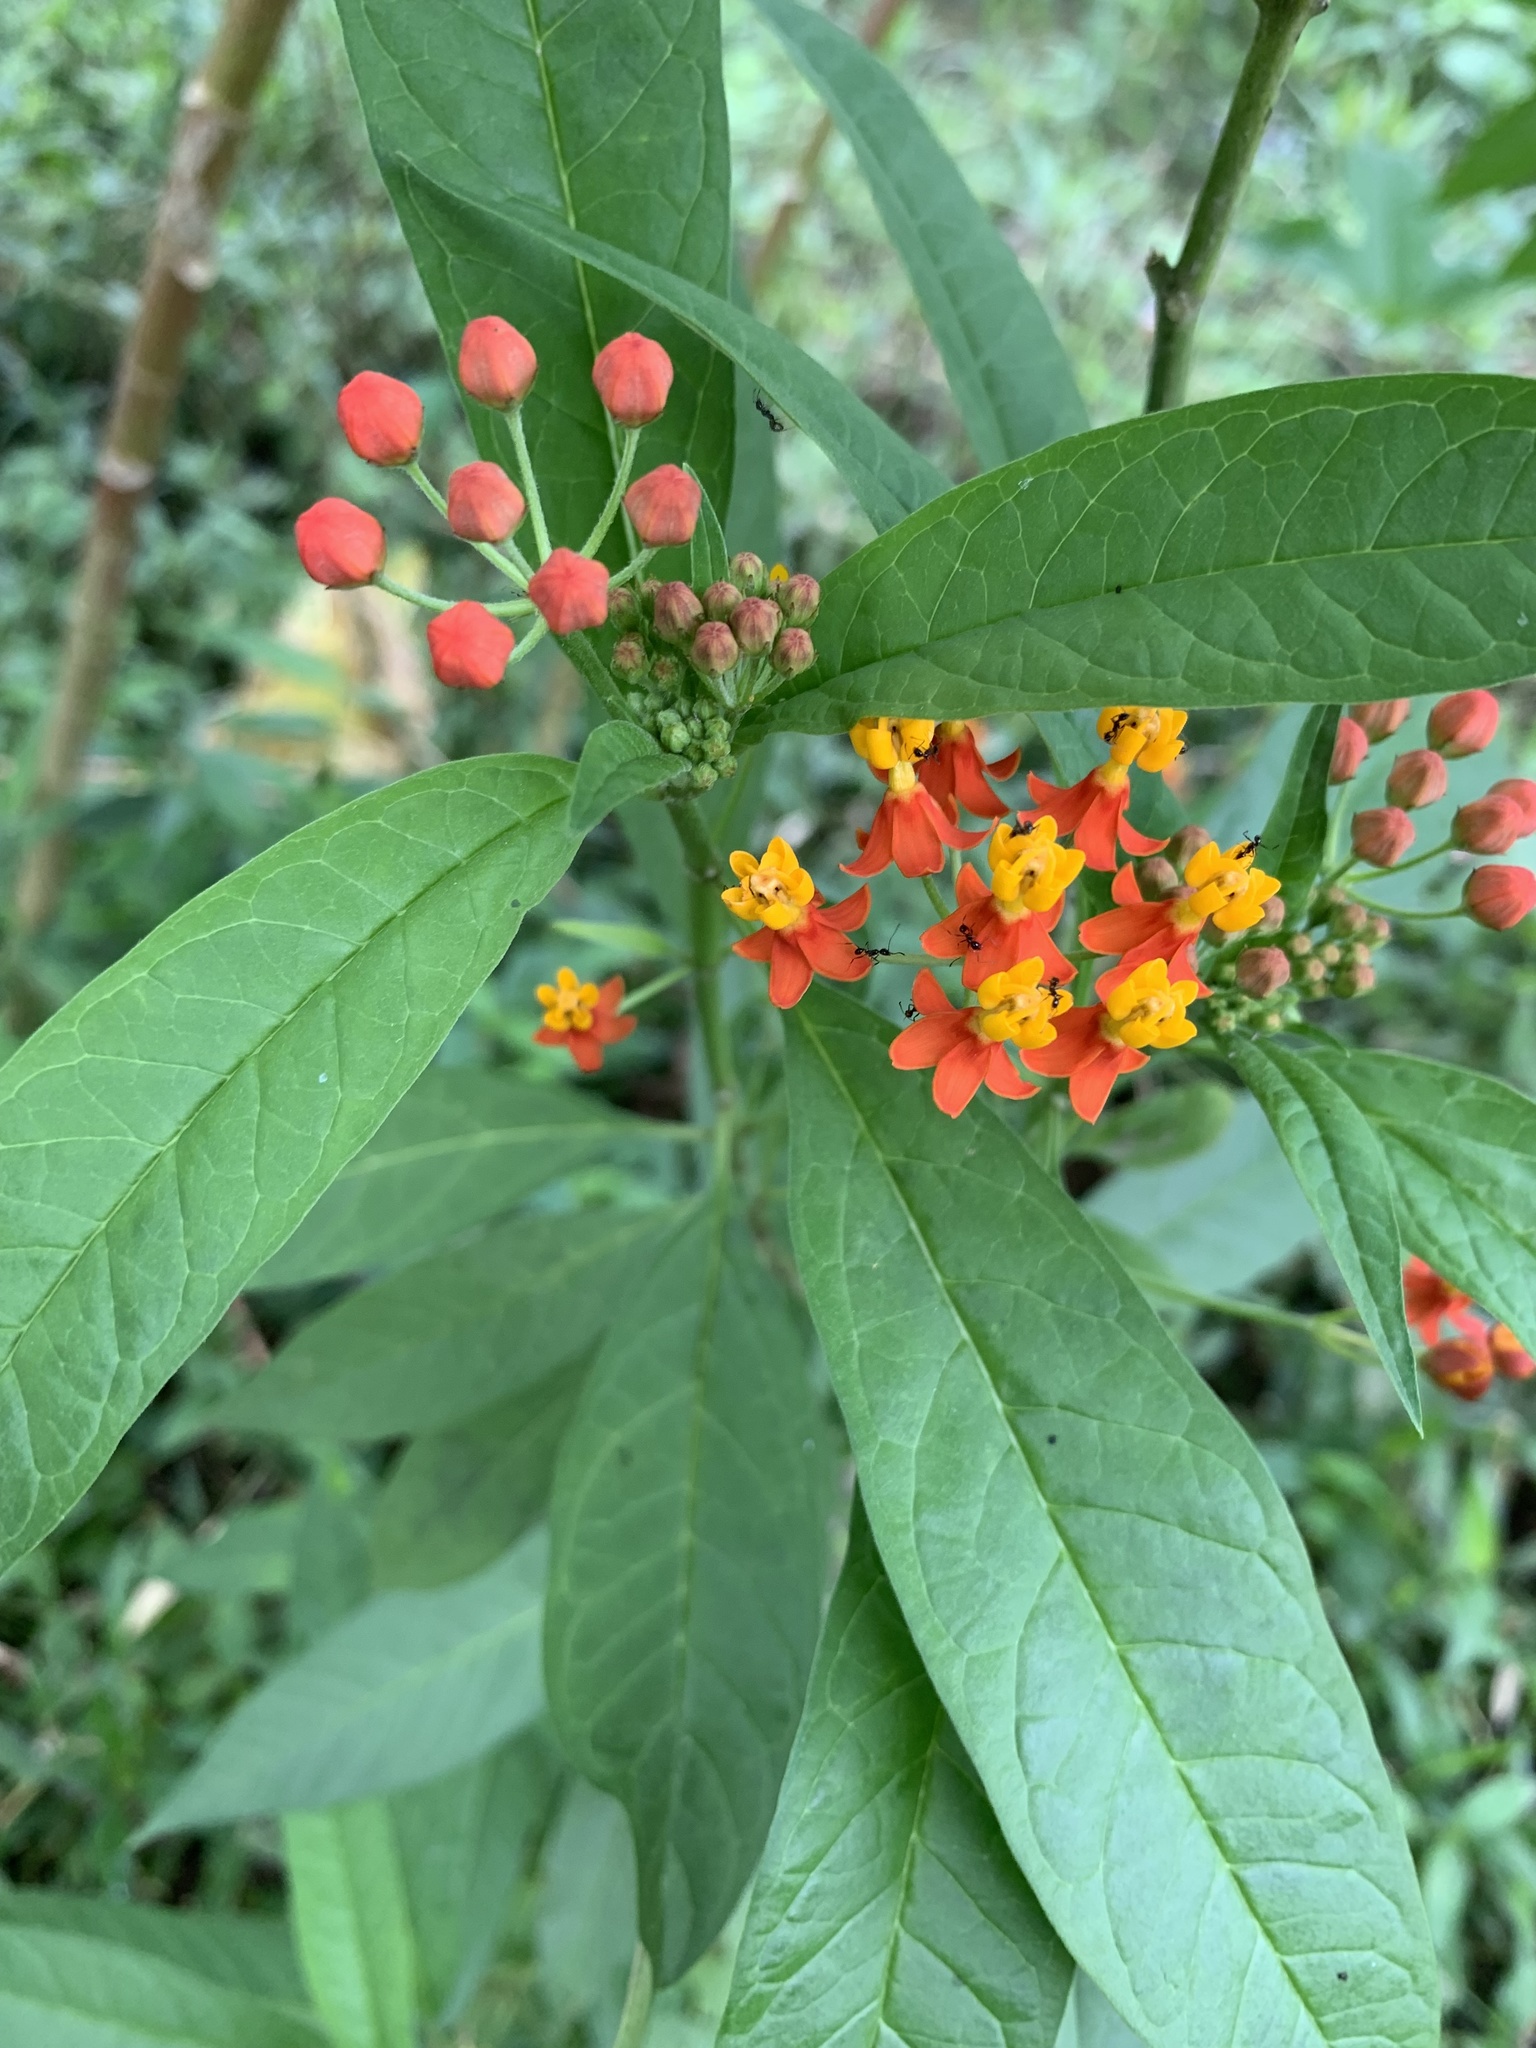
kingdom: Plantae
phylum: Tracheophyta
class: Magnoliopsida
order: Gentianales
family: Apocynaceae
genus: Asclepias
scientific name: Asclepias curassavica
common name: Bloodflower
